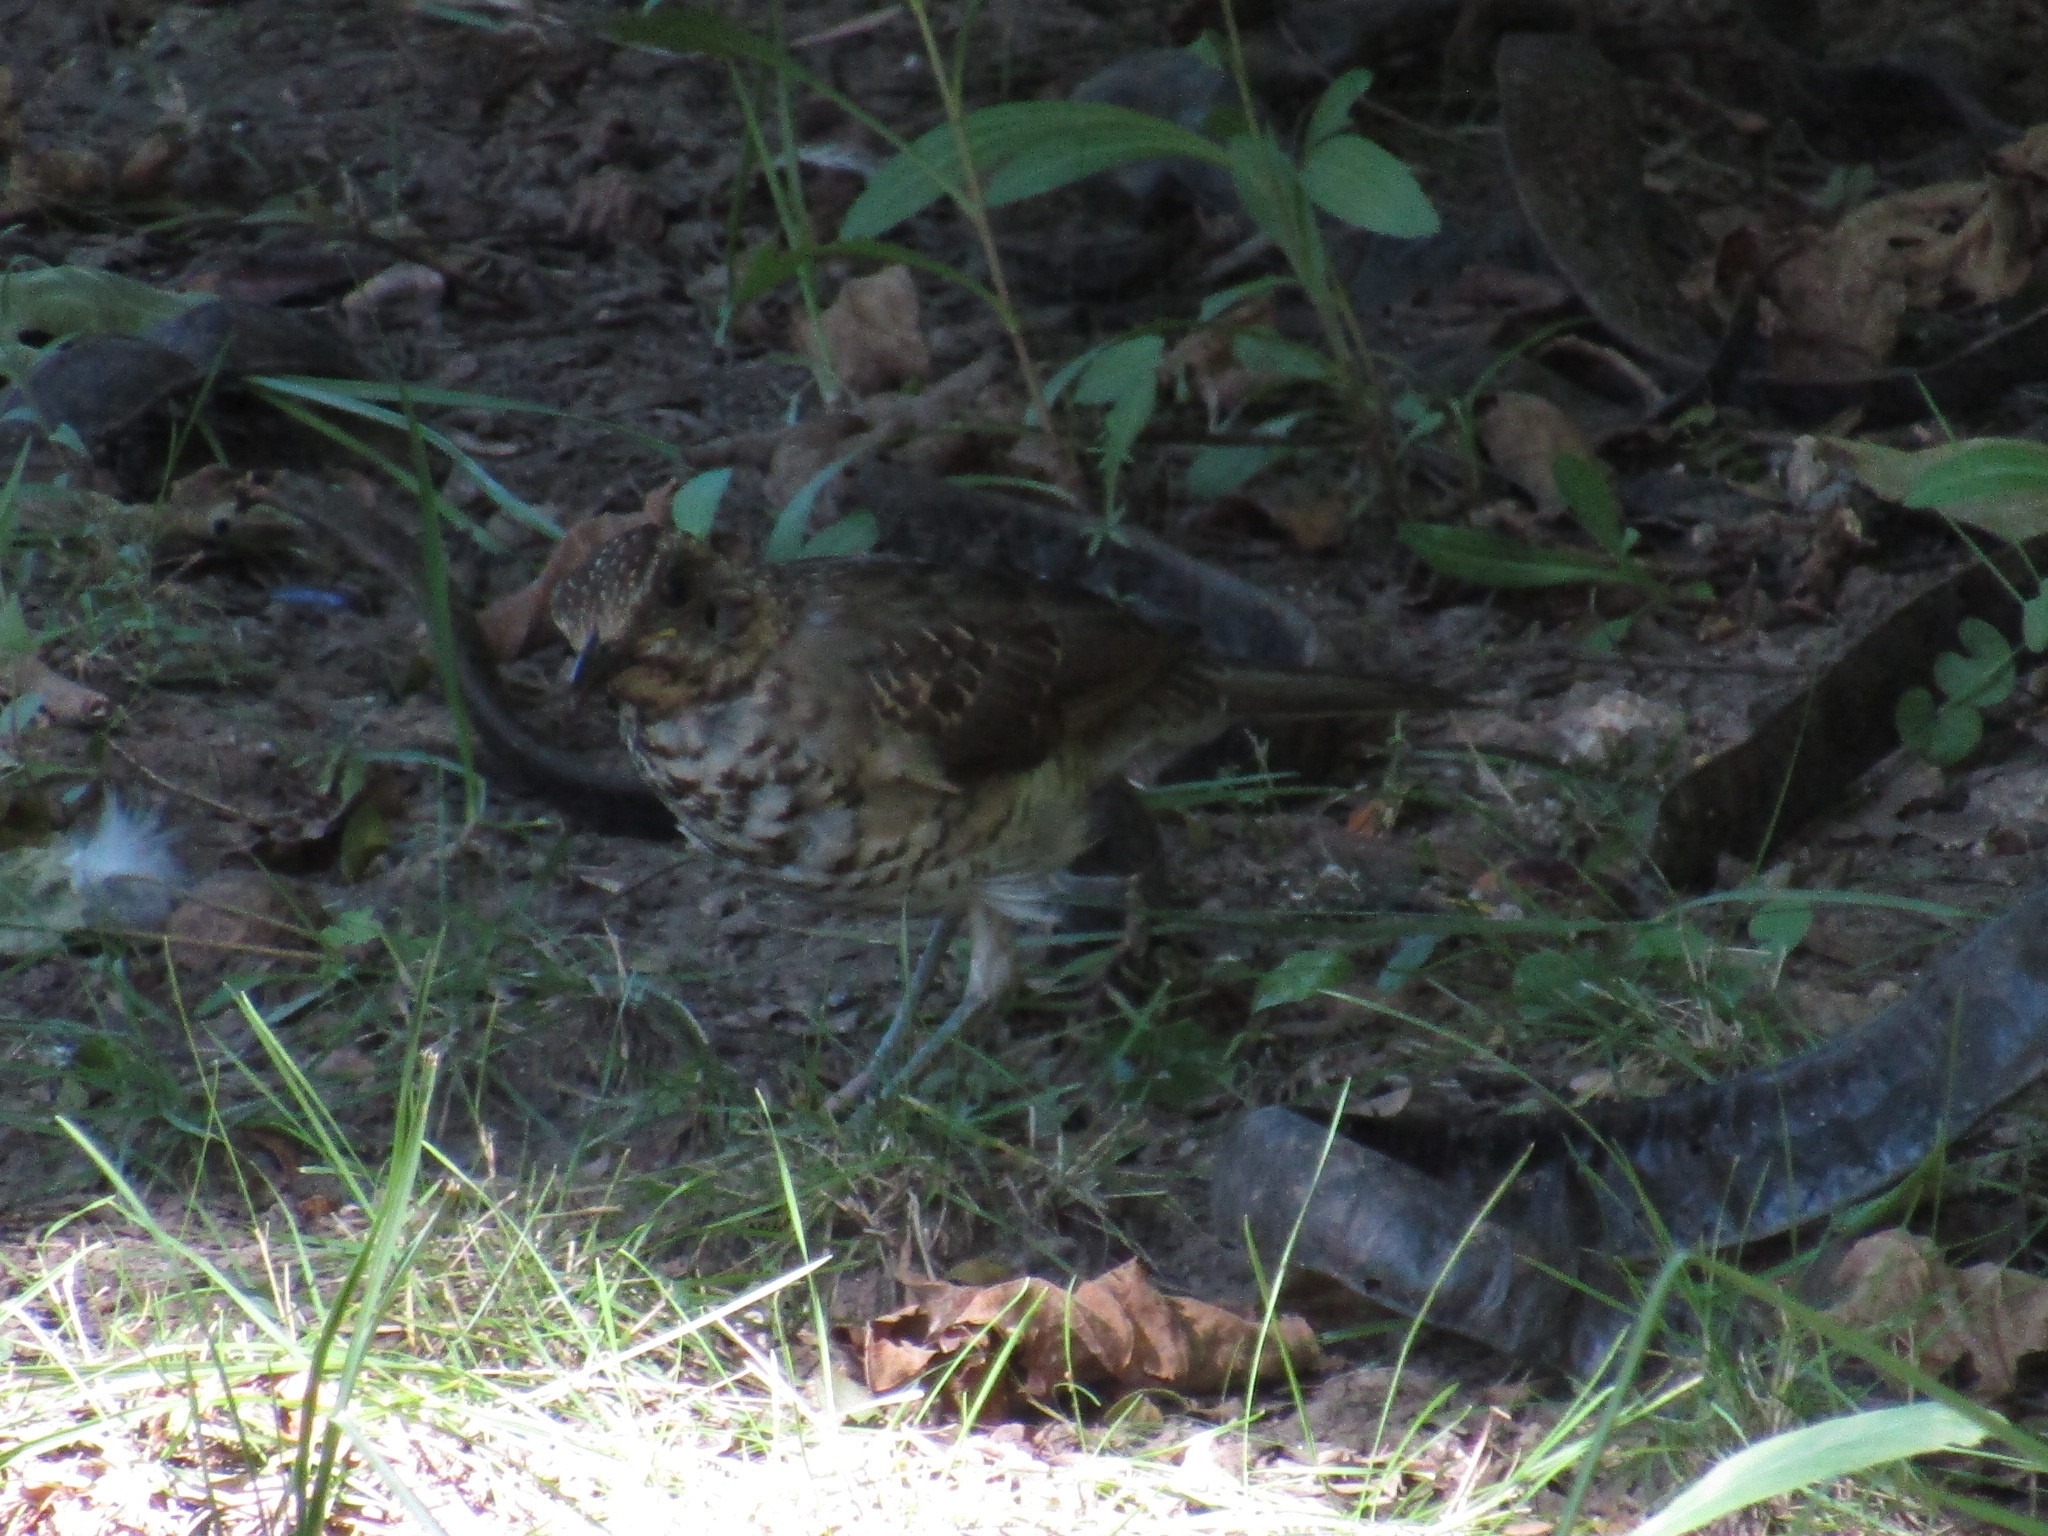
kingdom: Animalia
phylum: Chordata
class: Aves
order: Passeriformes
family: Turdidae
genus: Turdus
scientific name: Turdus amaurochalinus
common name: Creamy-bellied thrush
